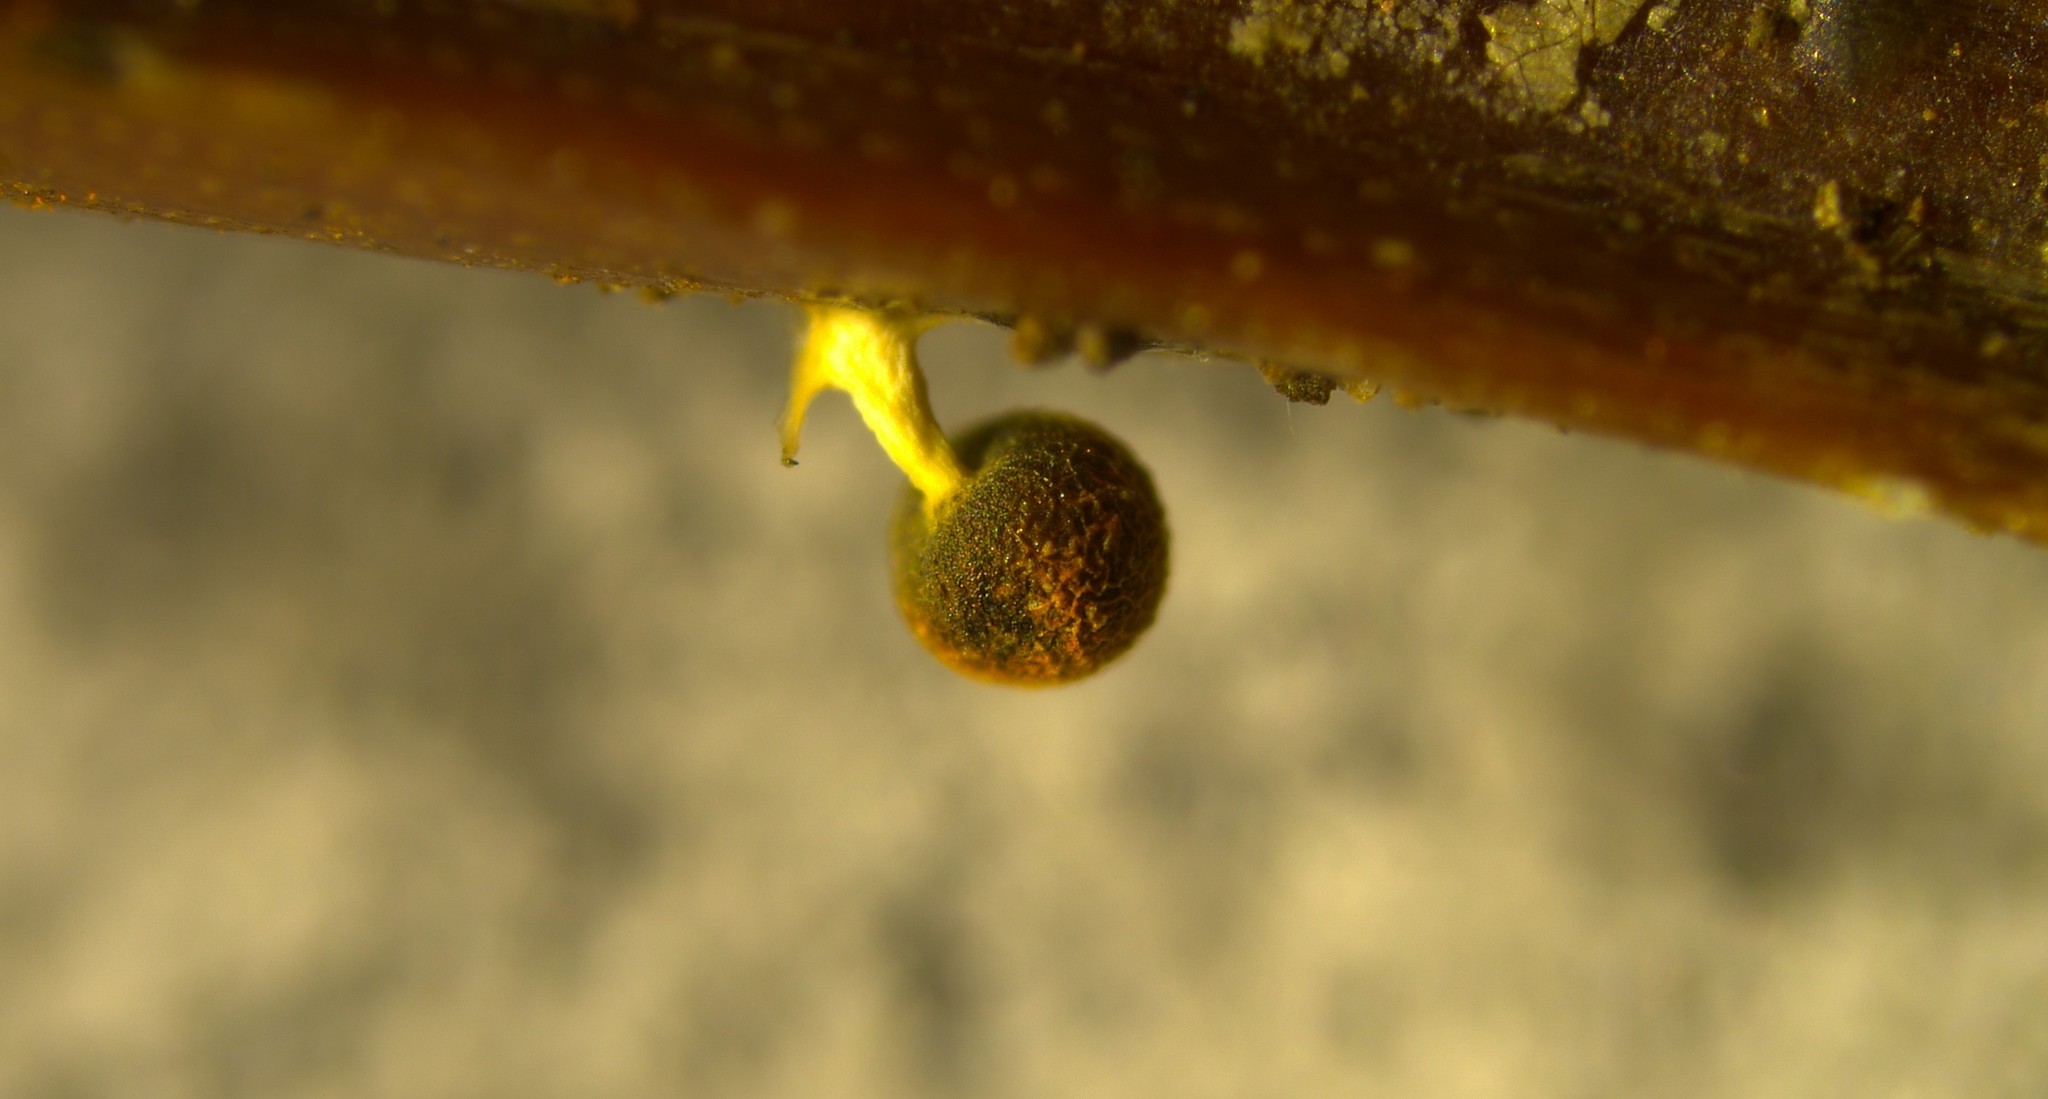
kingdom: Protozoa
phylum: Mycetozoa
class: Myxomycetes
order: Physarales
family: Physaraceae
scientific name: Physaraceae
